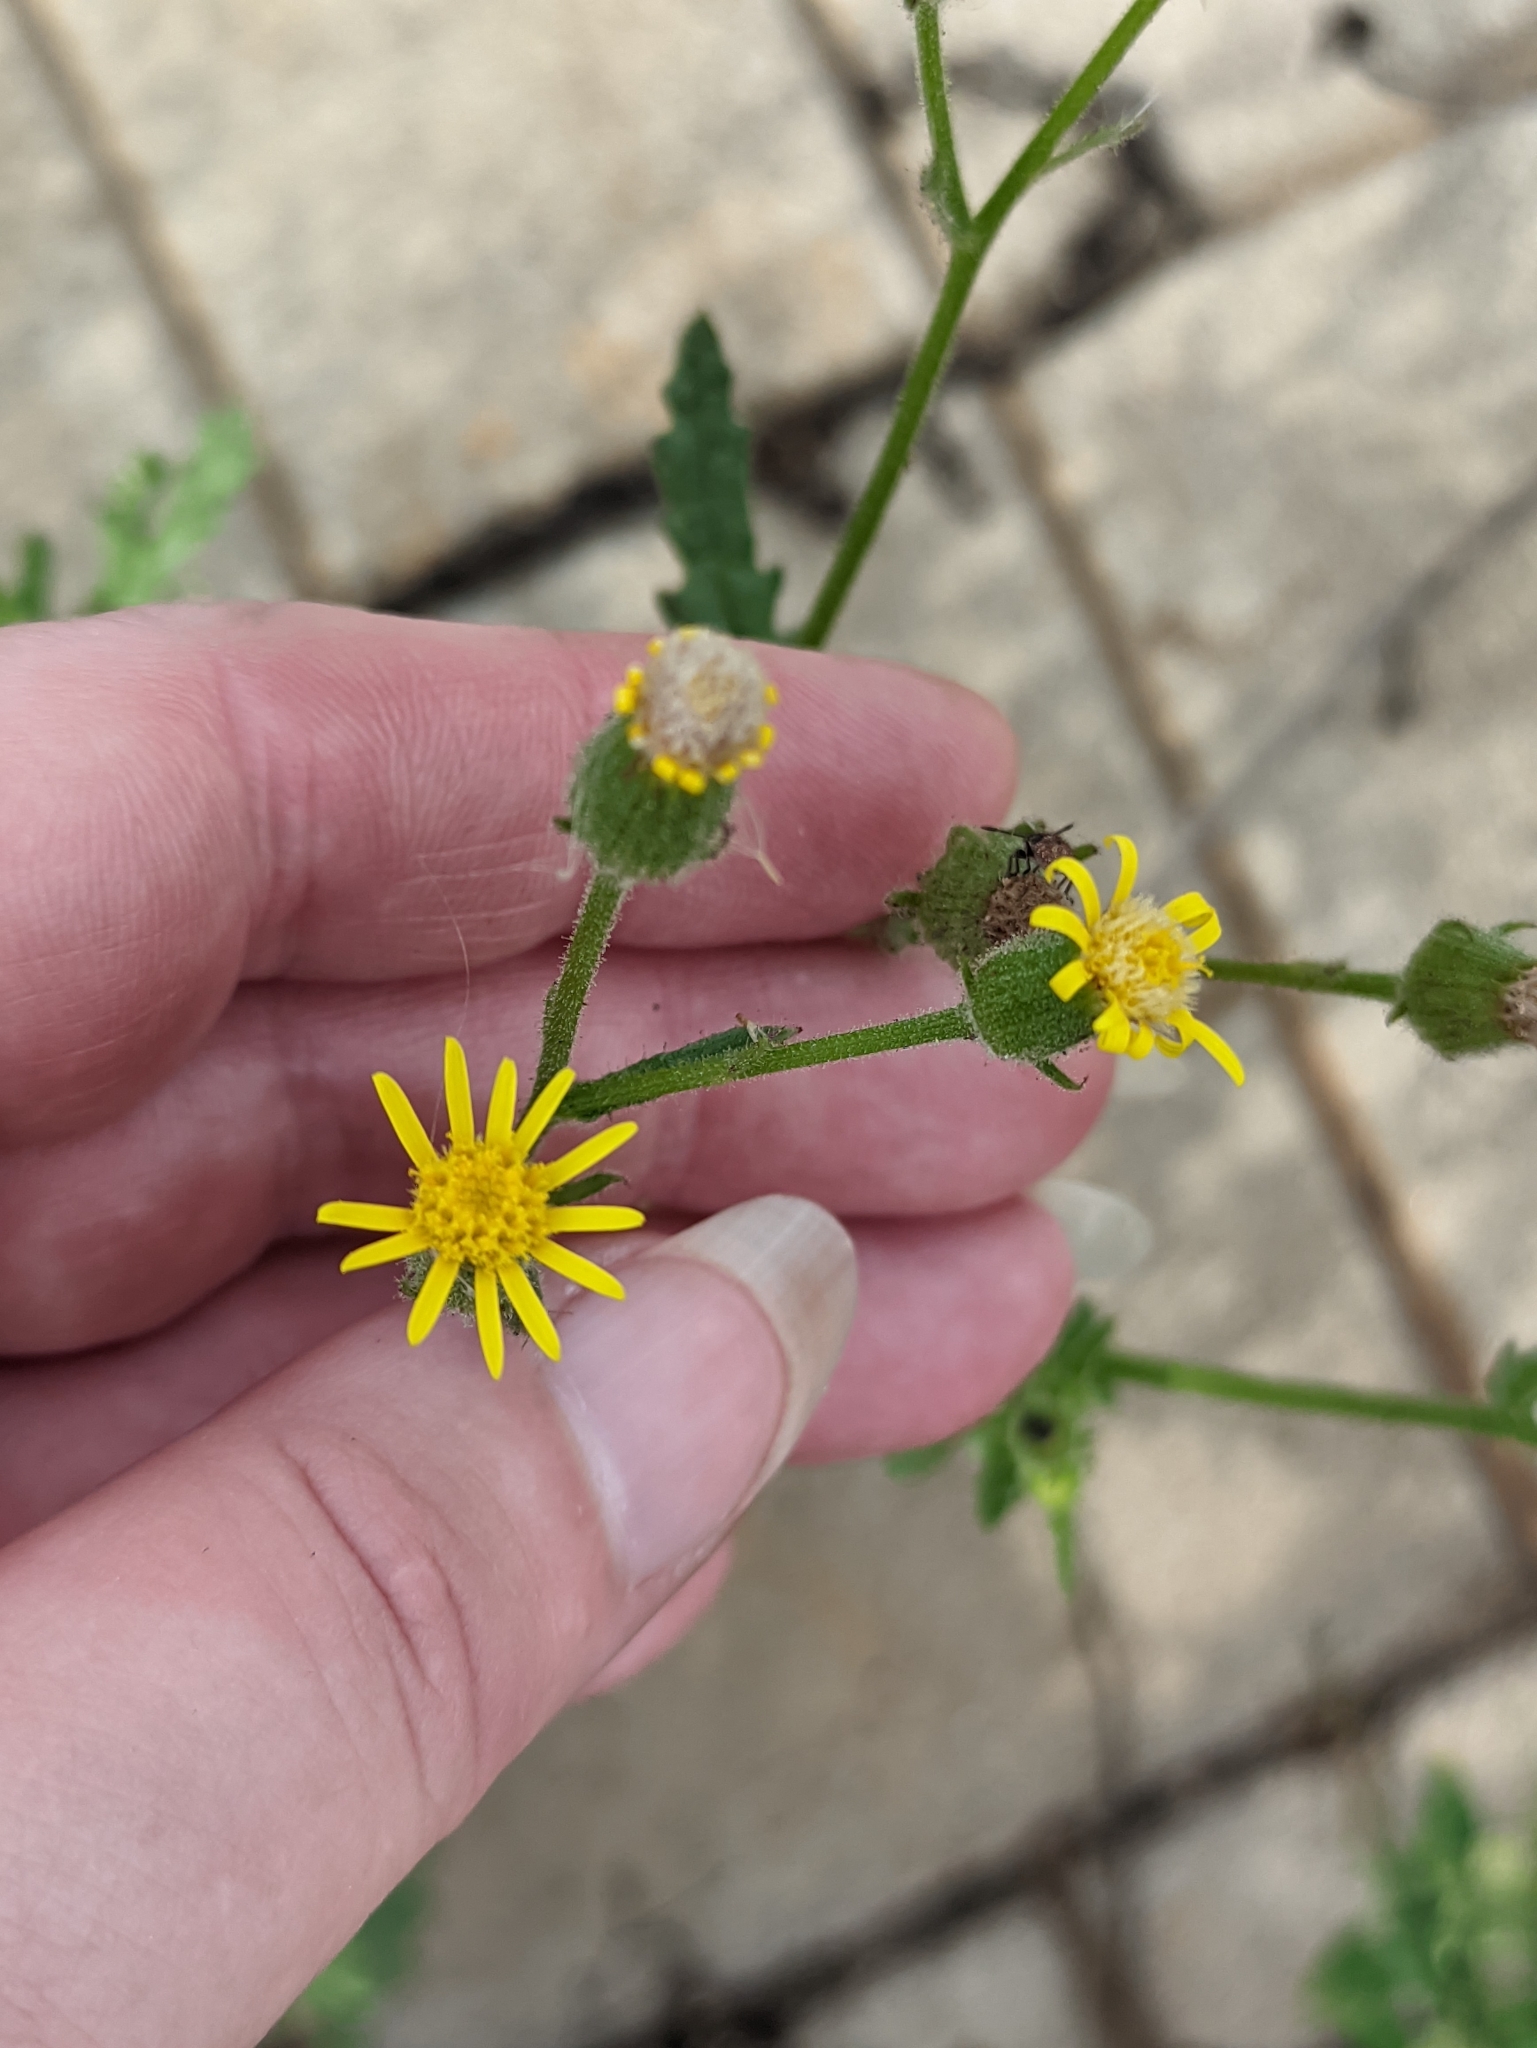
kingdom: Plantae
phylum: Tracheophyta
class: Magnoliopsida
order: Asterales
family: Asteraceae
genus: Senecio
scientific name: Senecio viscosus
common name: Sticky groundsel
